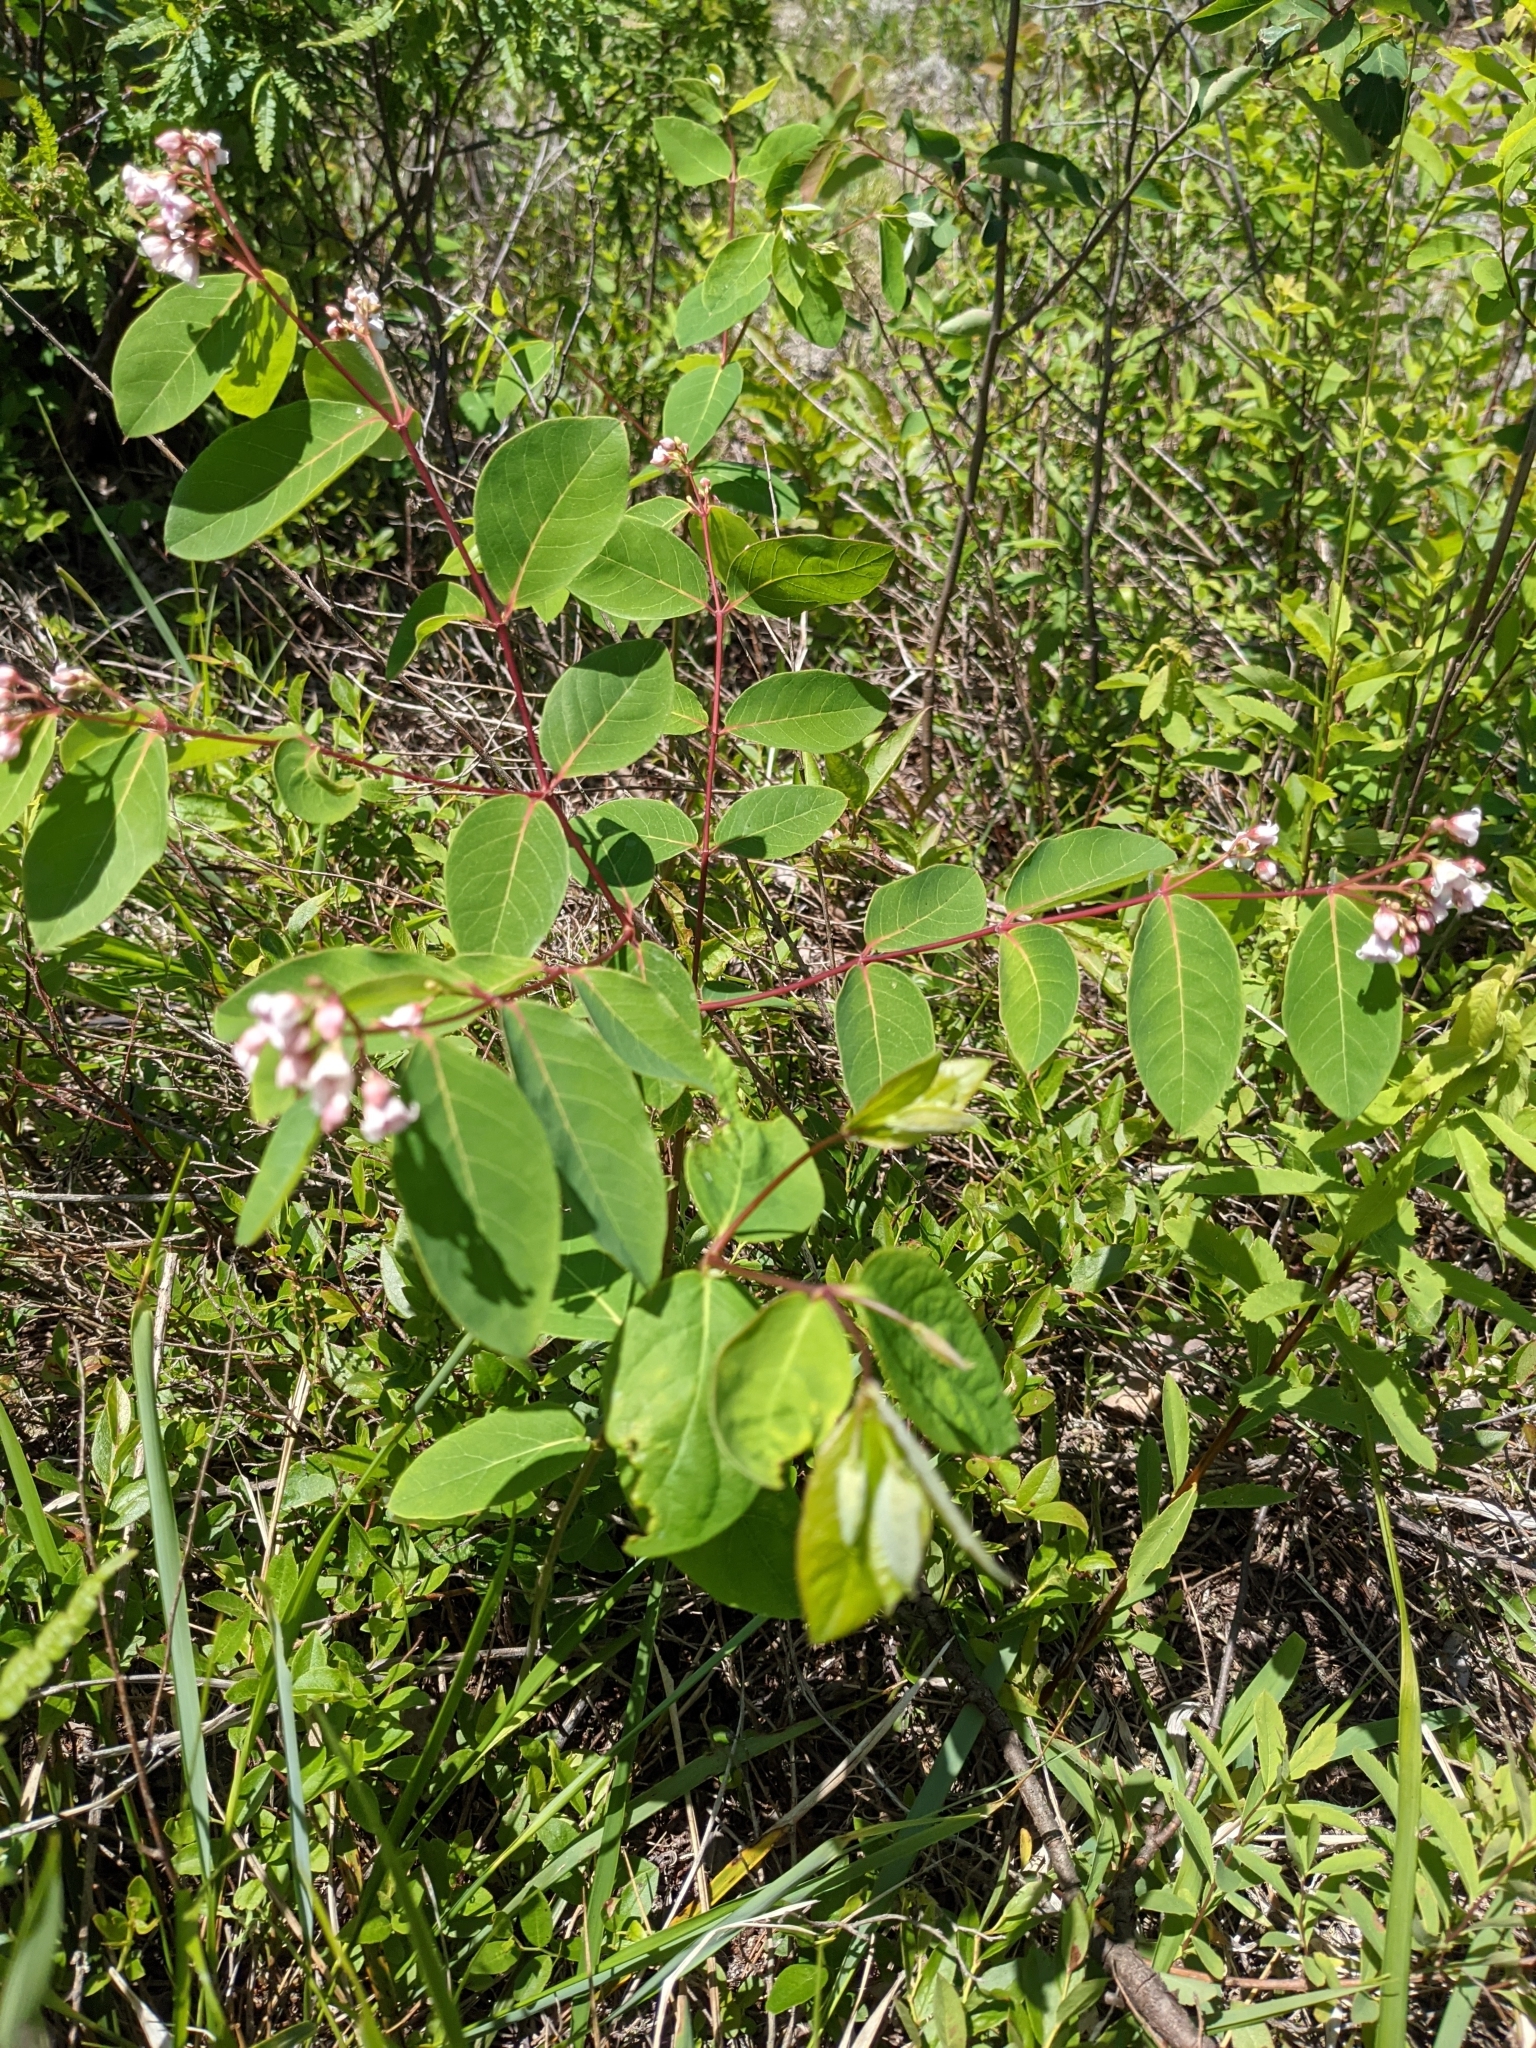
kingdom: Plantae
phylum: Tracheophyta
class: Magnoliopsida
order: Gentianales
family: Apocynaceae
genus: Apocynum
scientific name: Apocynum androsaemifolium
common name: Spreading dogbane
